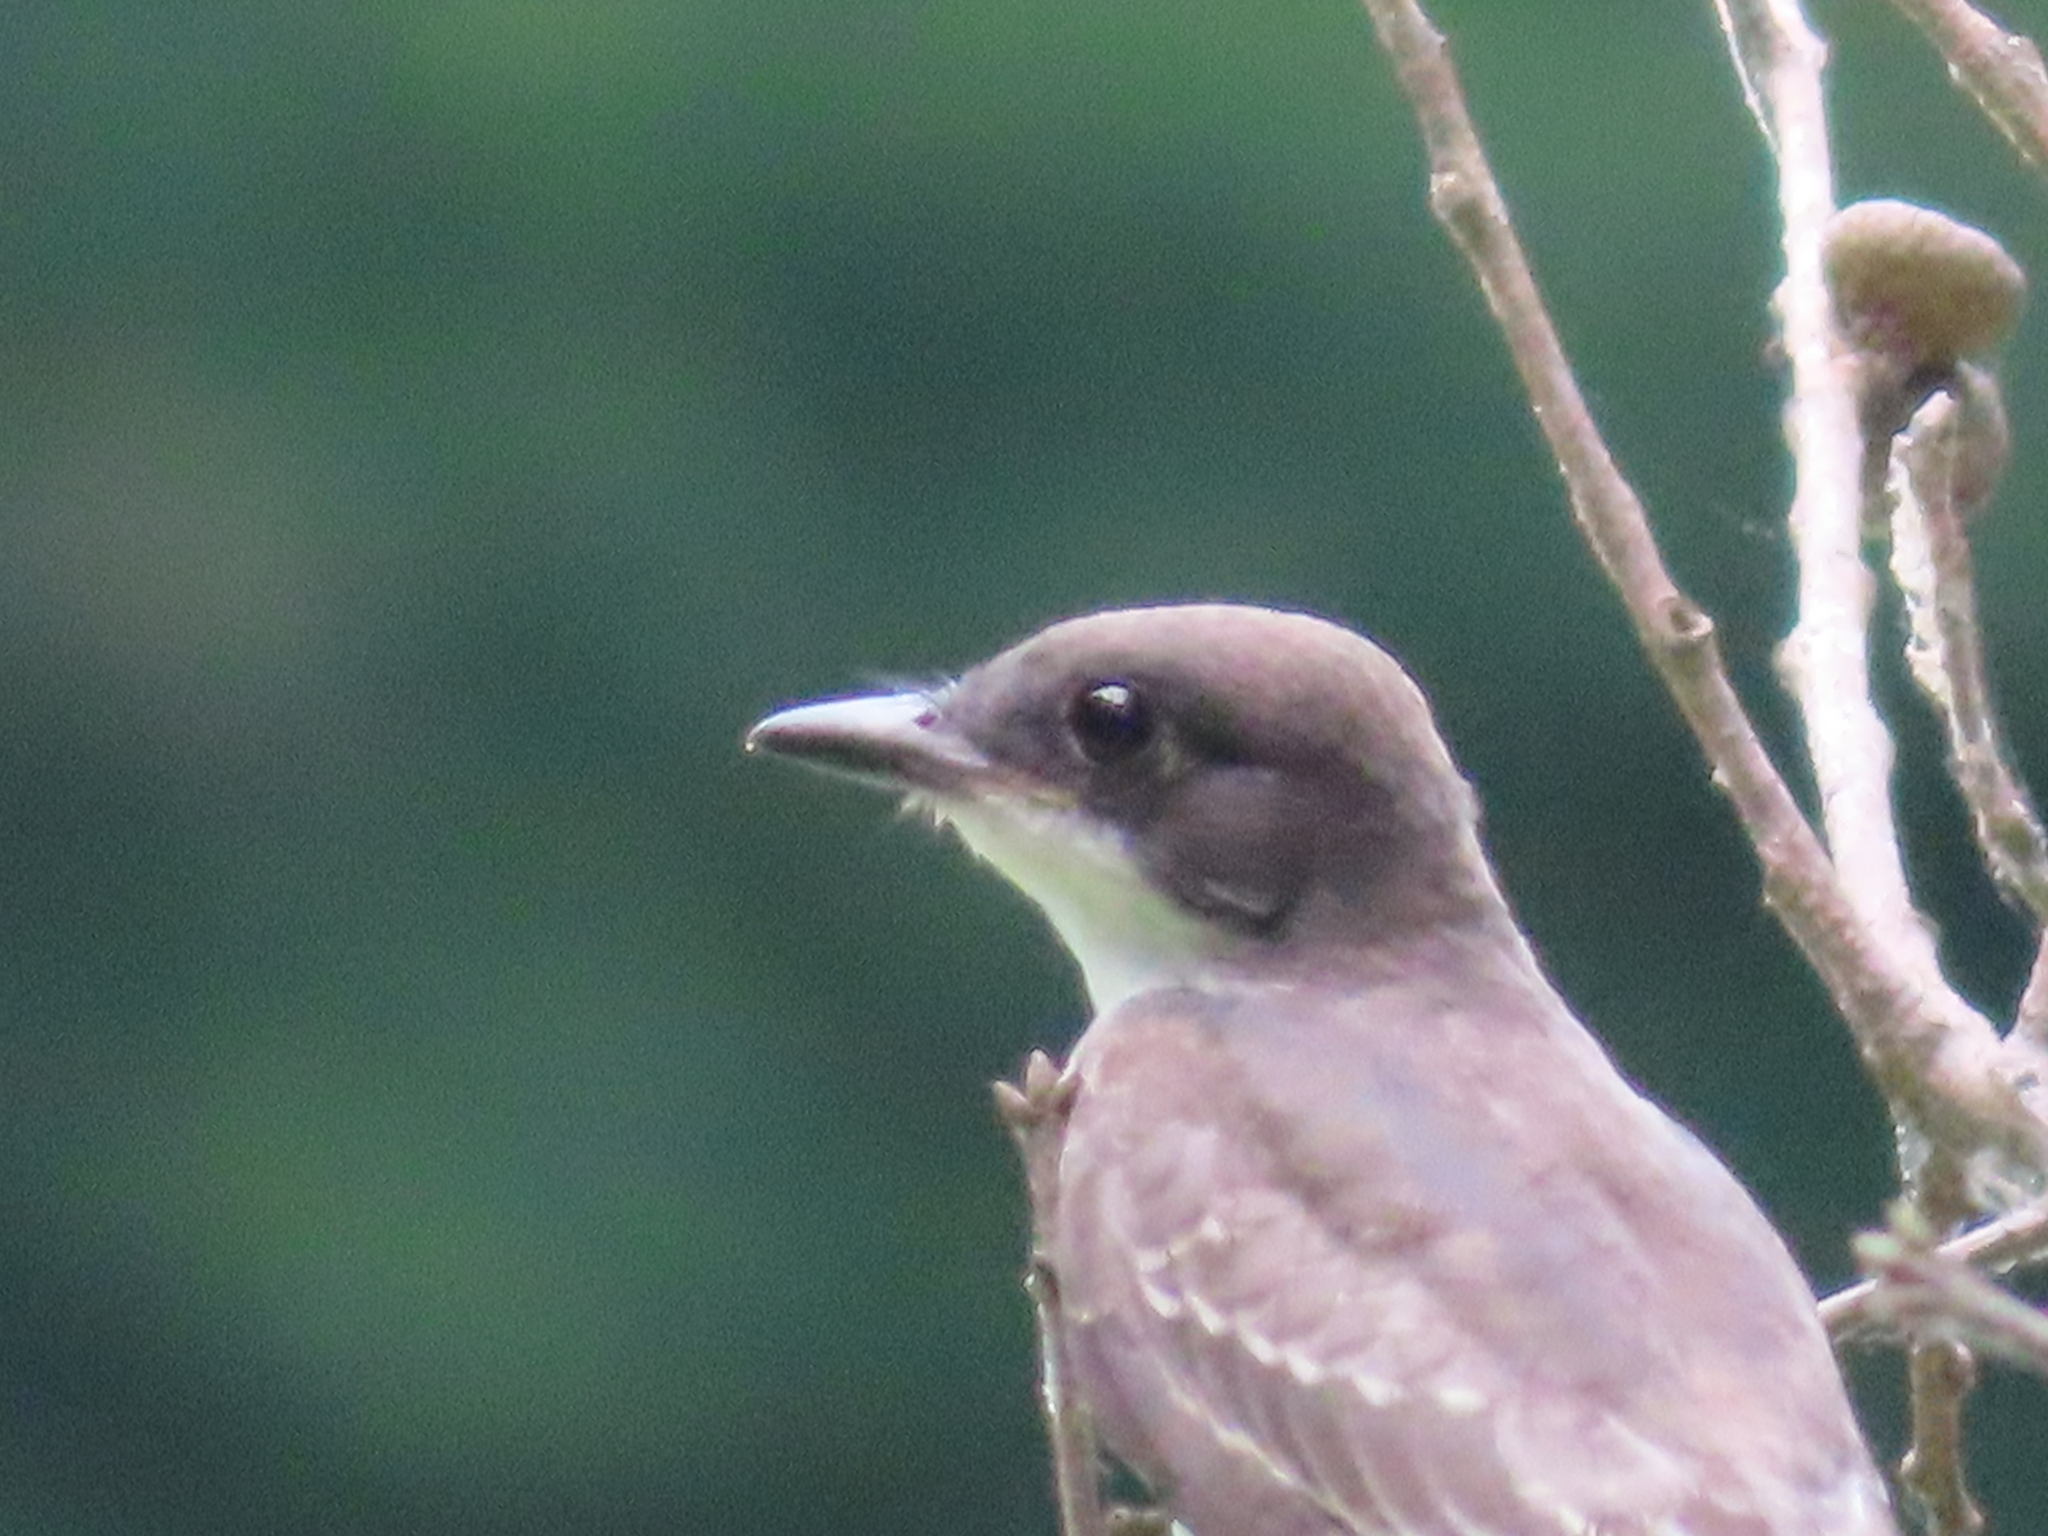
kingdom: Animalia
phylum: Chordata
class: Aves
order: Passeriformes
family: Tyrannidae
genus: Tyrannus
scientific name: Tyrannus tyrannus
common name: Eastern kingbird
